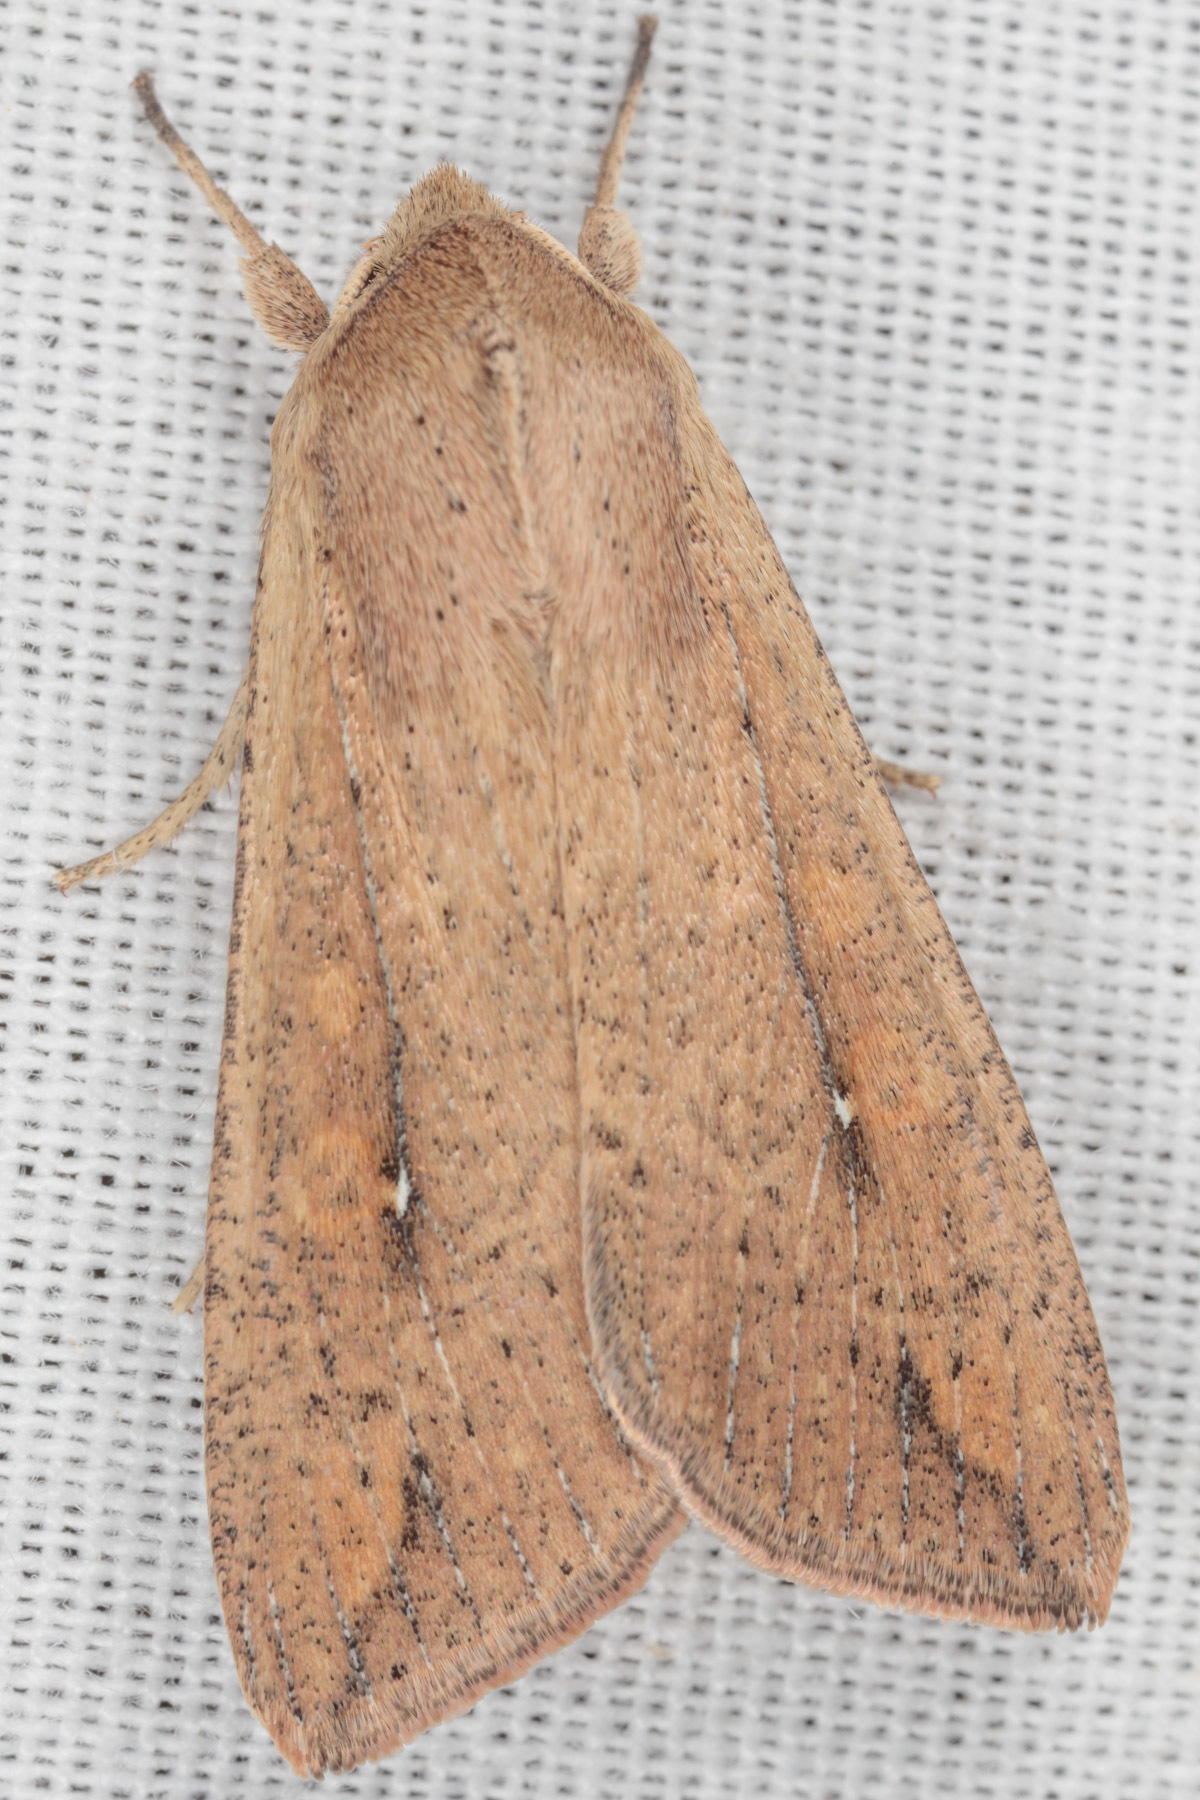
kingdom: Animalia
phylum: Arthropoda
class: Insecta
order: Lepidoptera
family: Noctuidae
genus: Mythimna
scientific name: Mythimna unipuncta
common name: White-speck
